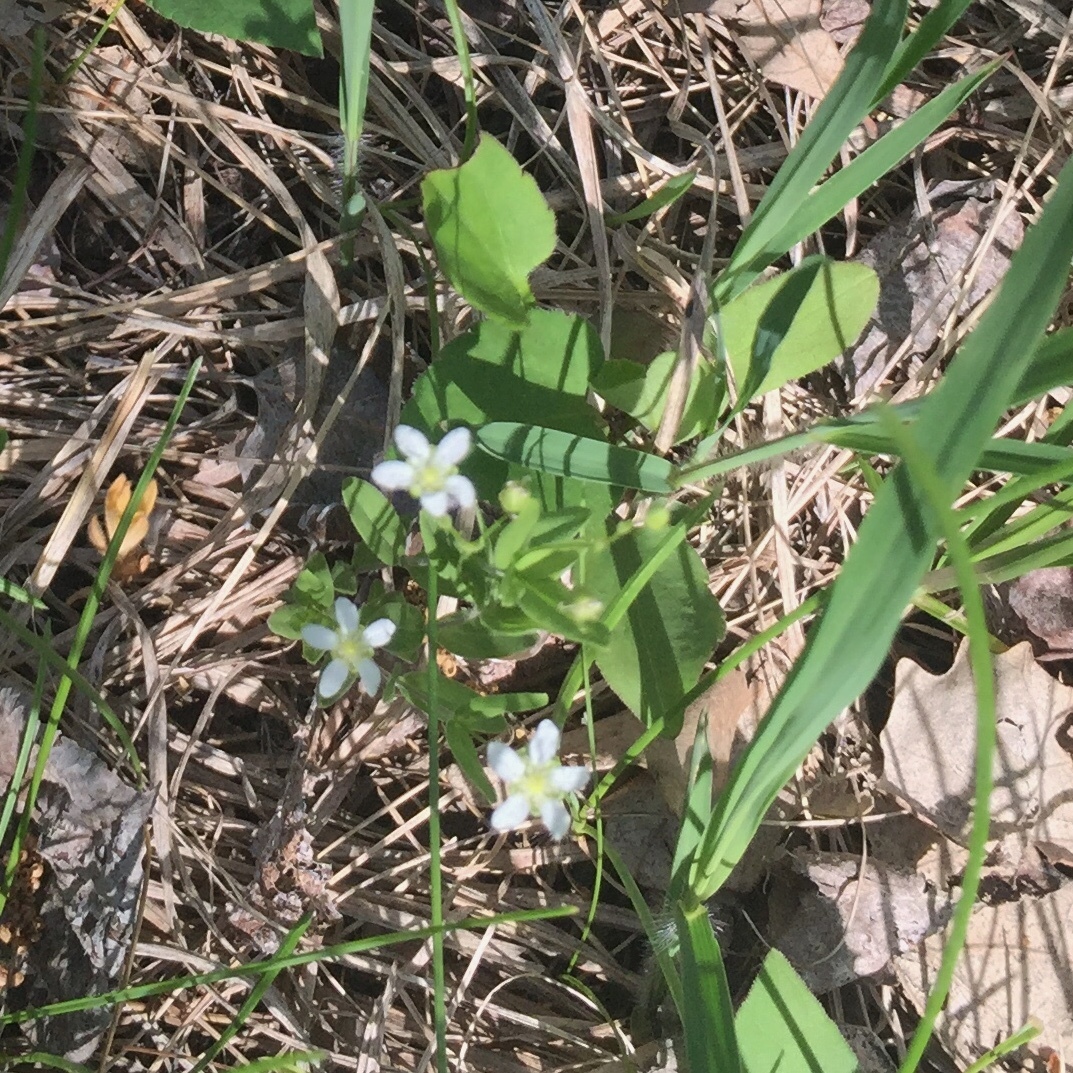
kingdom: Plantae
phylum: Tracheophyta
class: Magnoliopsida
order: Caryophyllales
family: Caryophyllaceae
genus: Moehringia
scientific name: Moehringia lateriflora
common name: Blunt-leaved sandwort
